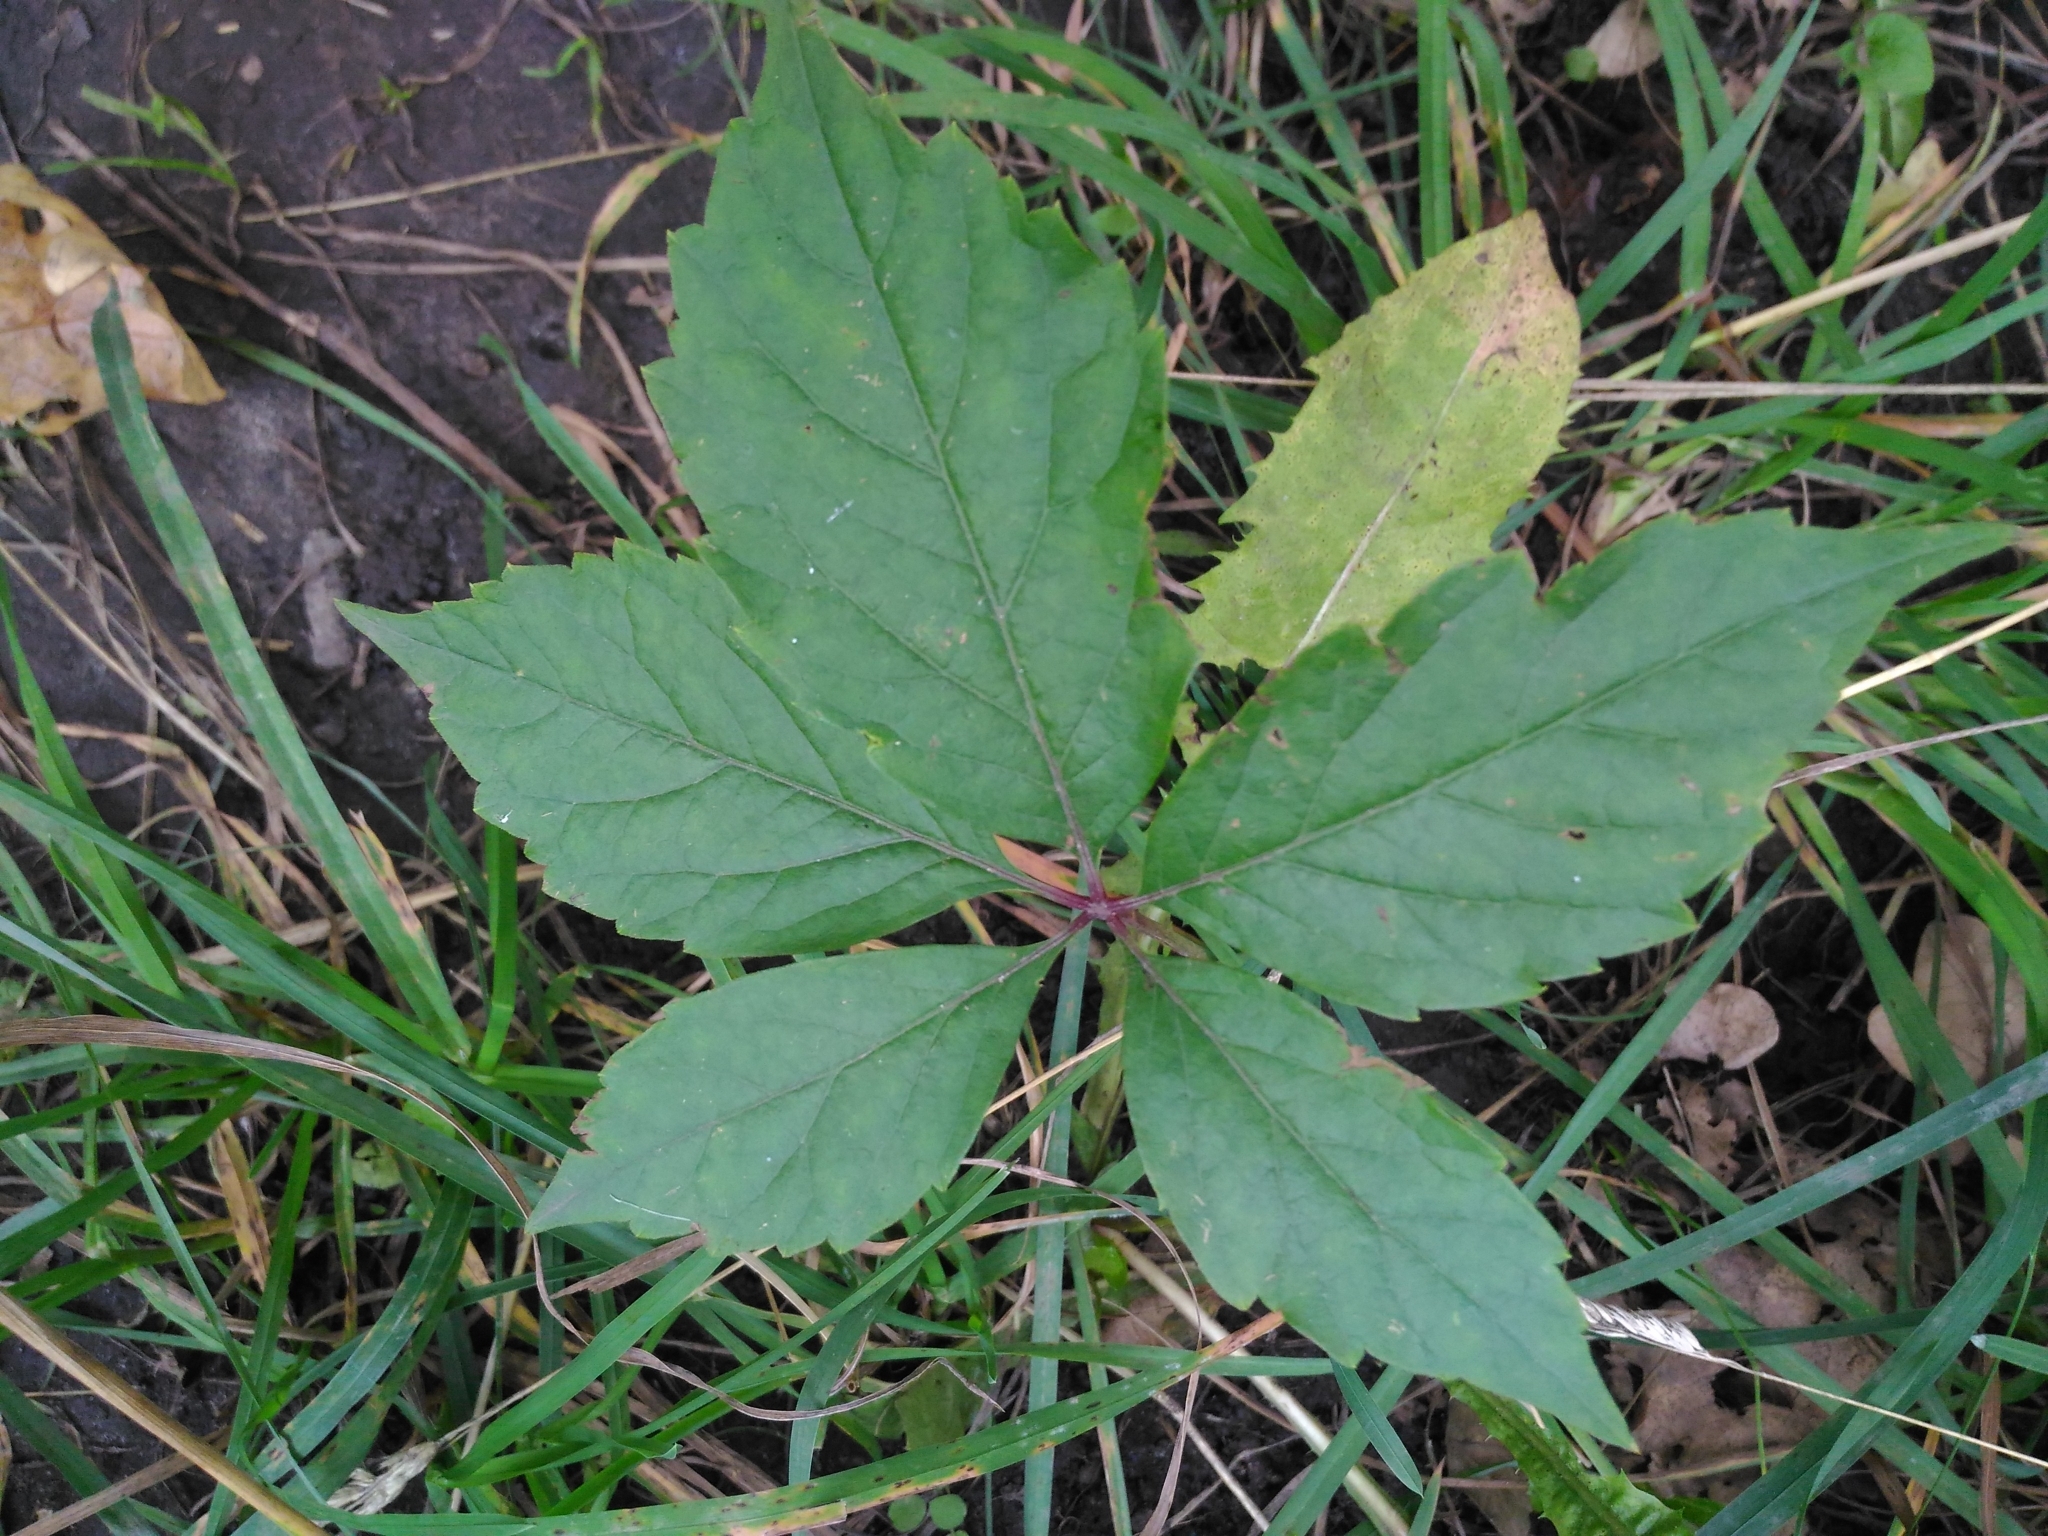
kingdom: Plantae
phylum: Tracheophyta
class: Magnoliopsida
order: Vitales
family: Vitaceae
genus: Parthenocissus
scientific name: Parthenocissus inserta
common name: False virginia-creeper
